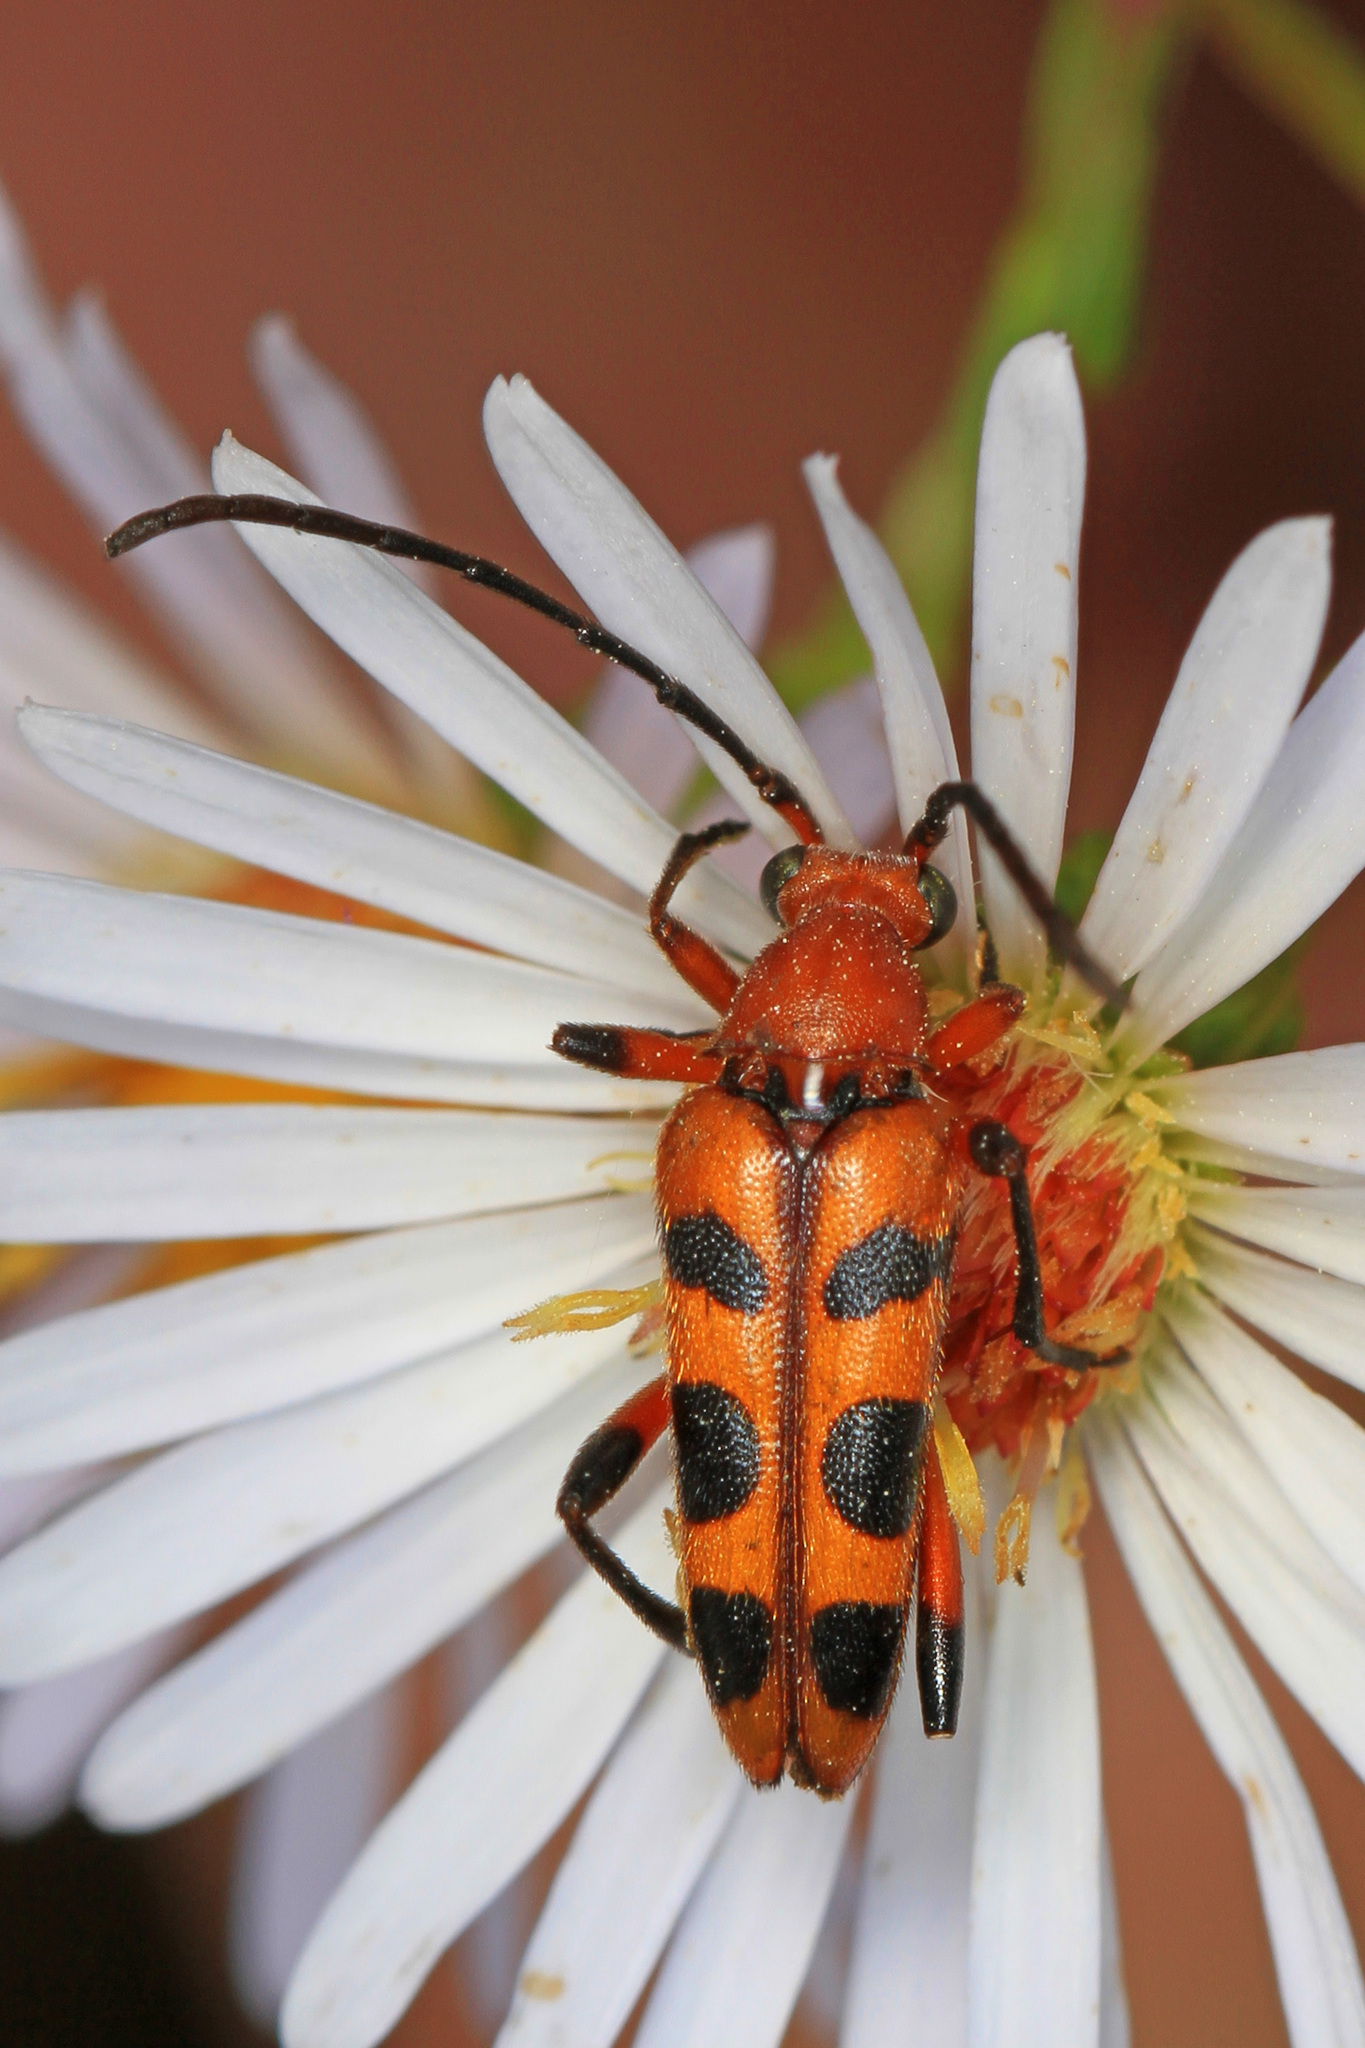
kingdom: Animalia
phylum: Arthropoda
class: Insecta
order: Coleoptera
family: Cerambycidae
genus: Strangalia
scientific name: Strangalia sexnotata
